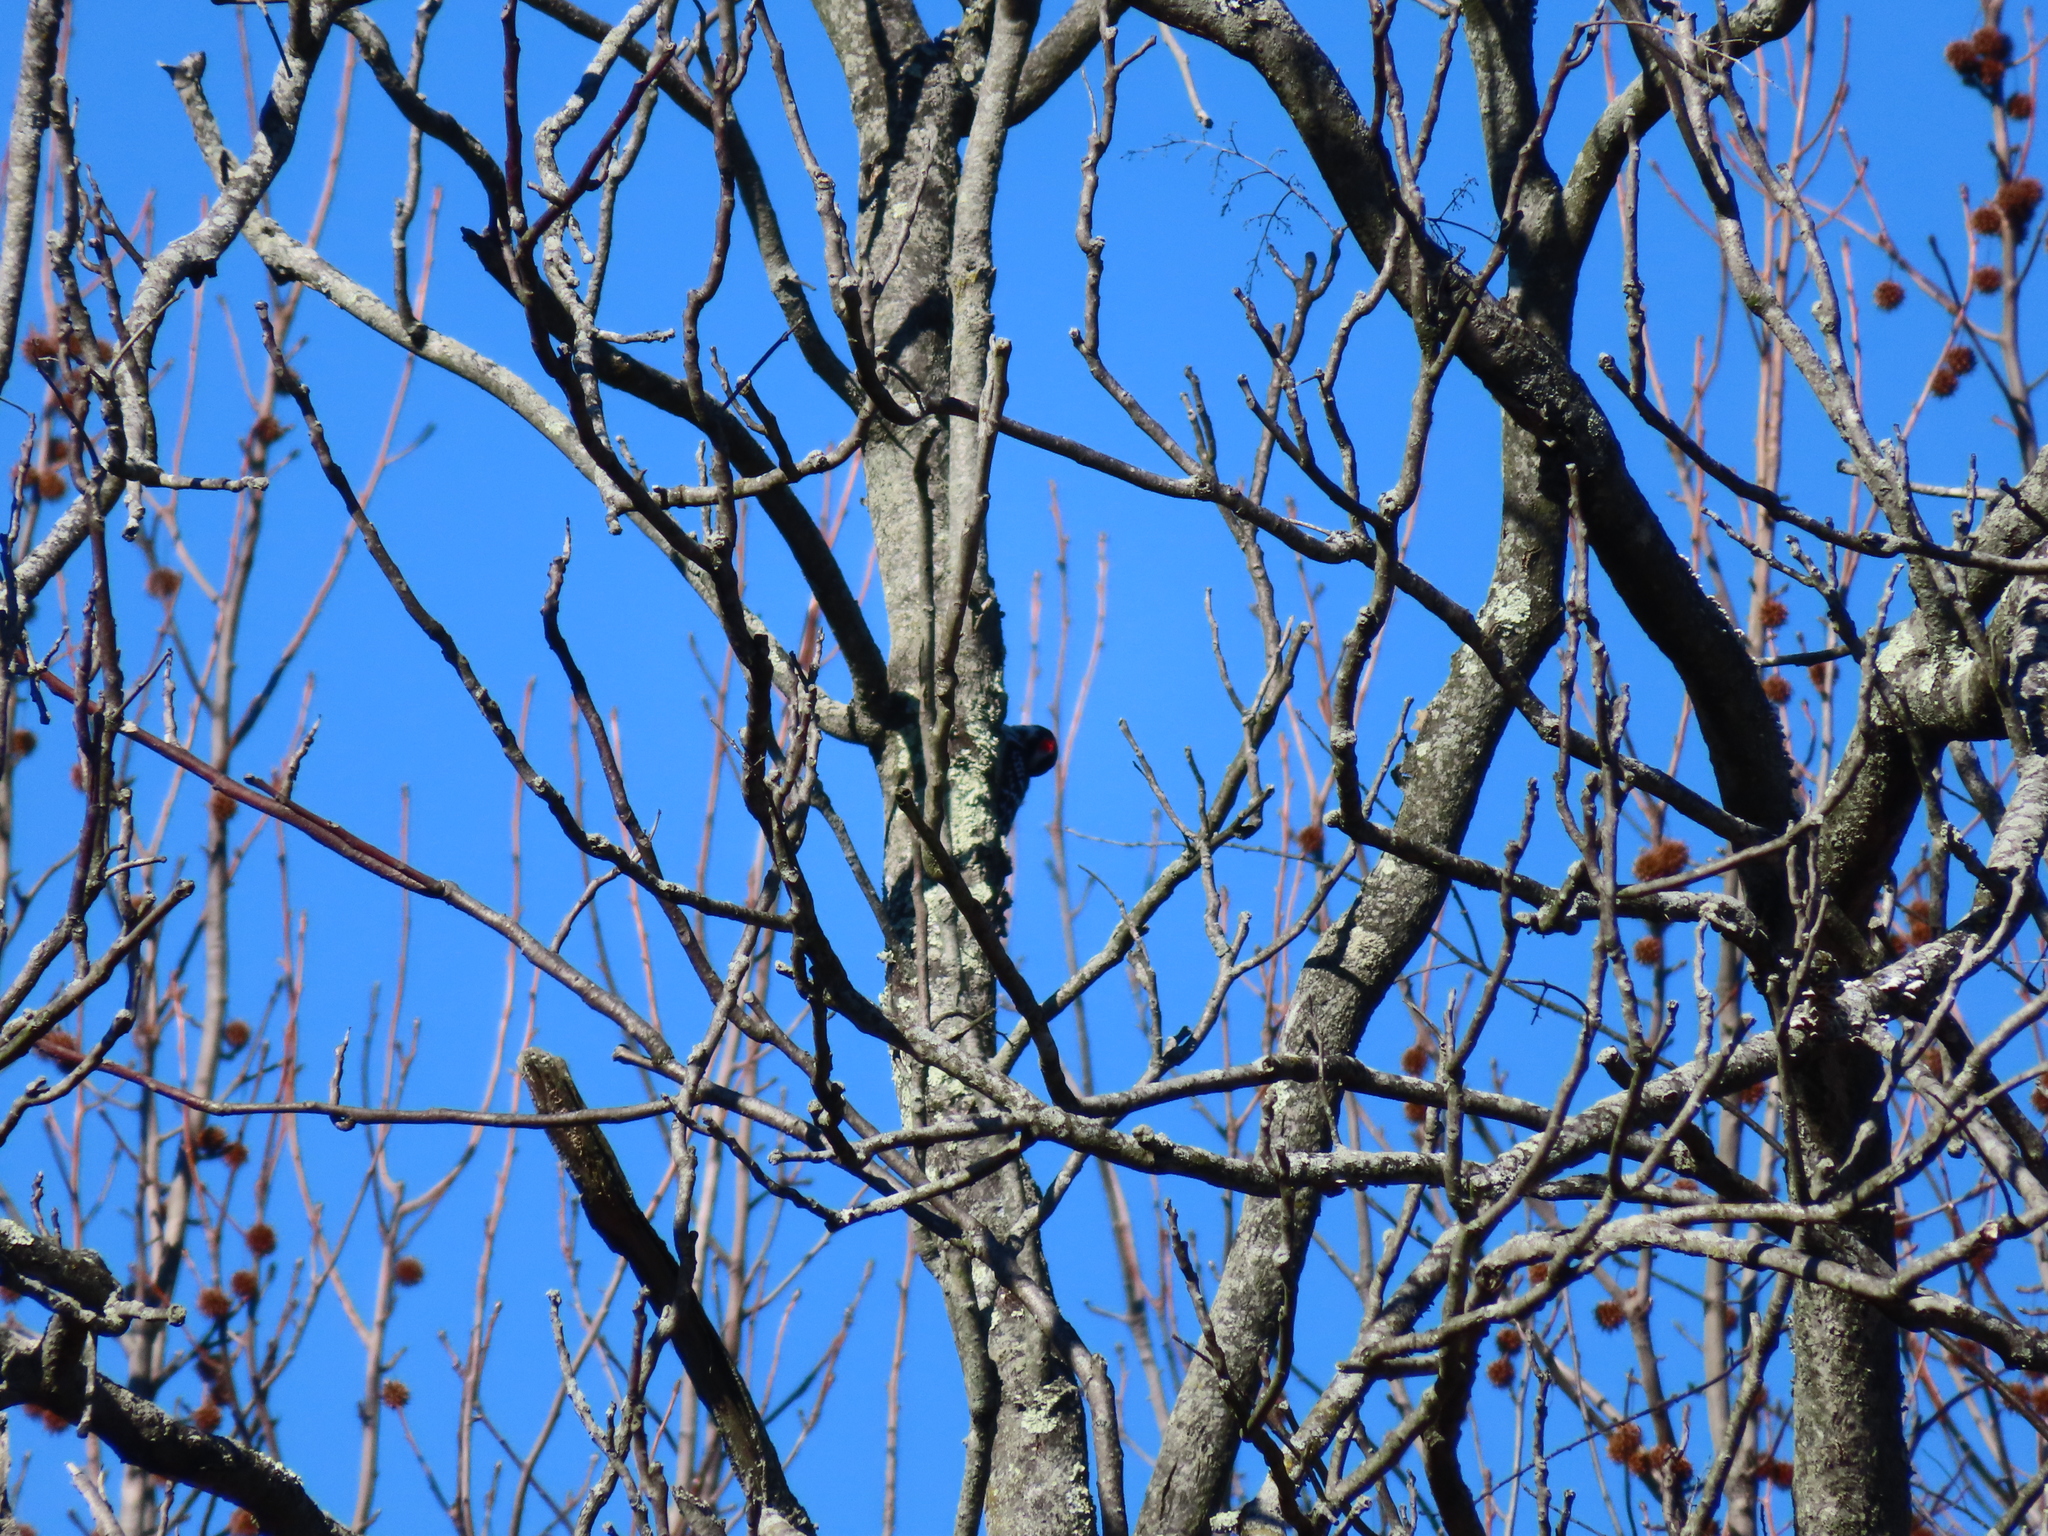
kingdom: Animalia
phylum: Chordata
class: Aves
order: Piciformes
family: Picidae
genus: Dryobates
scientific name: Dryobates pubescens
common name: Downy woodpecker
